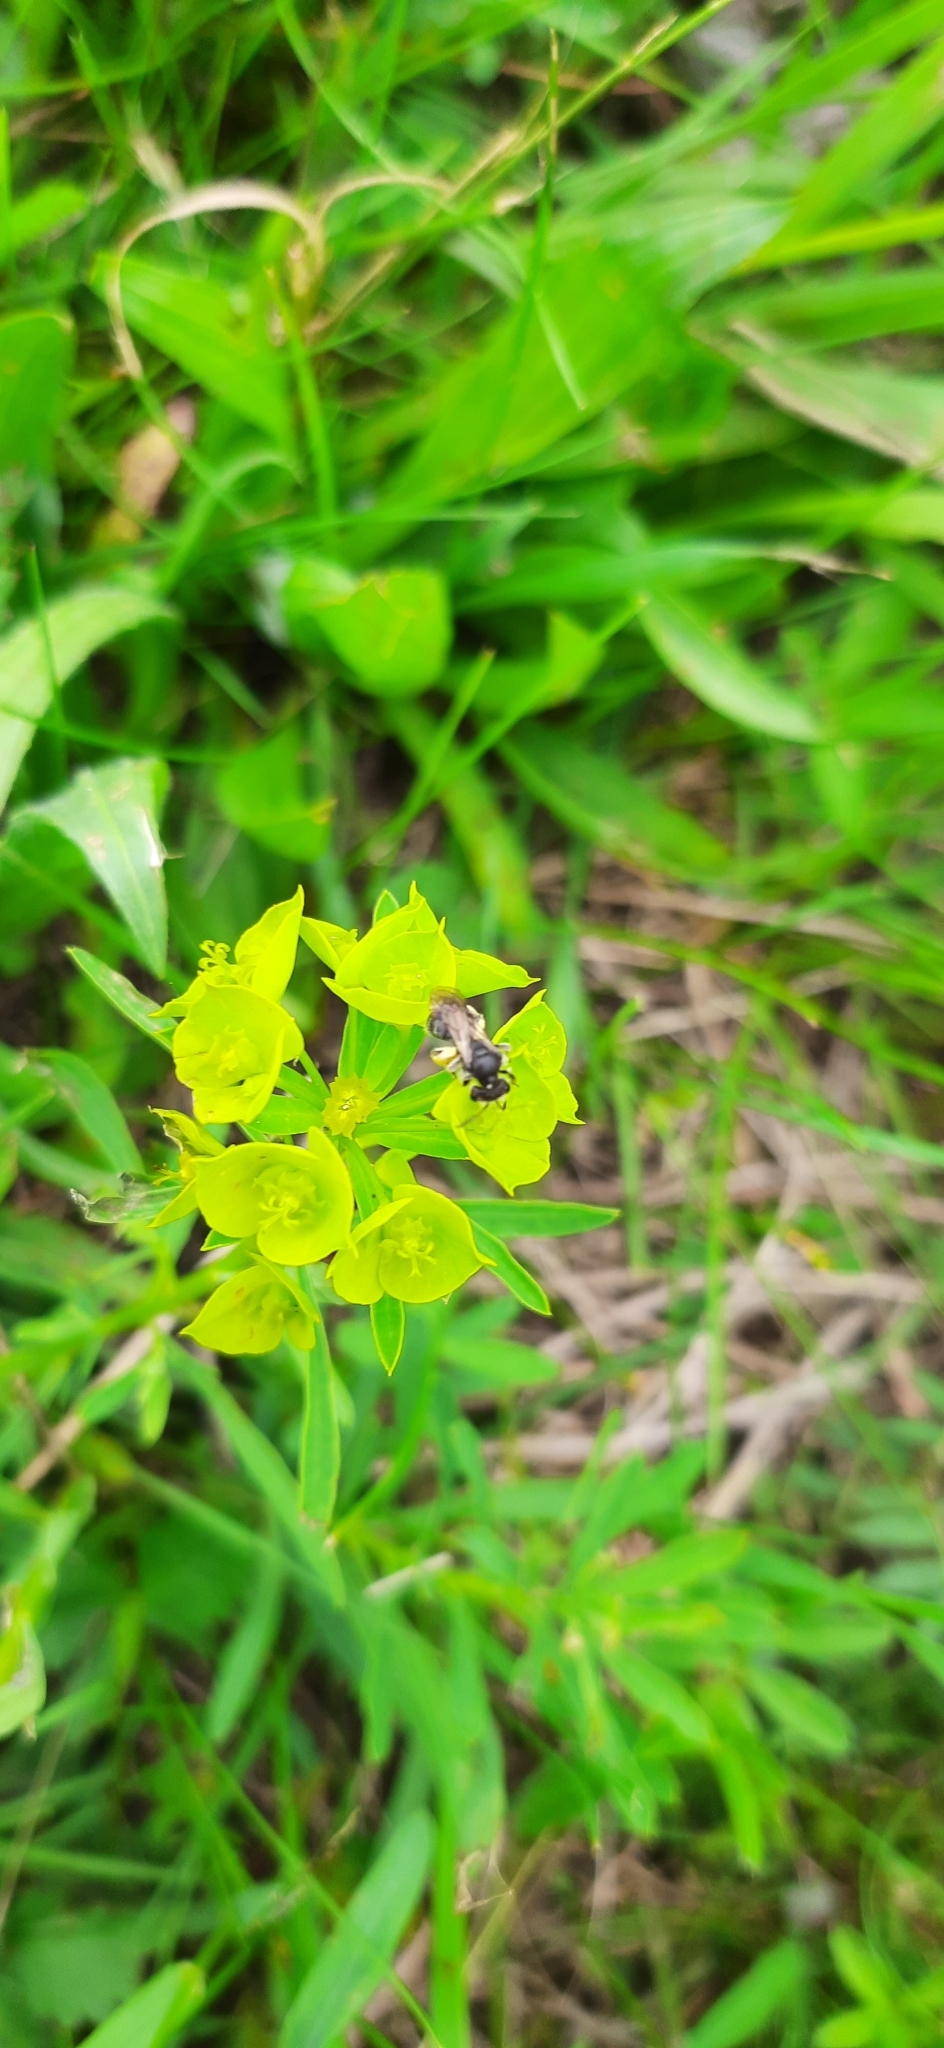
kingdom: Plantae
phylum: Tracheophyta
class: Magnoliopsida
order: Malpighiales
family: Euphorbiaceae
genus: Euphorbia
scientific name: Euphorbia esula
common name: Leafy spurge
